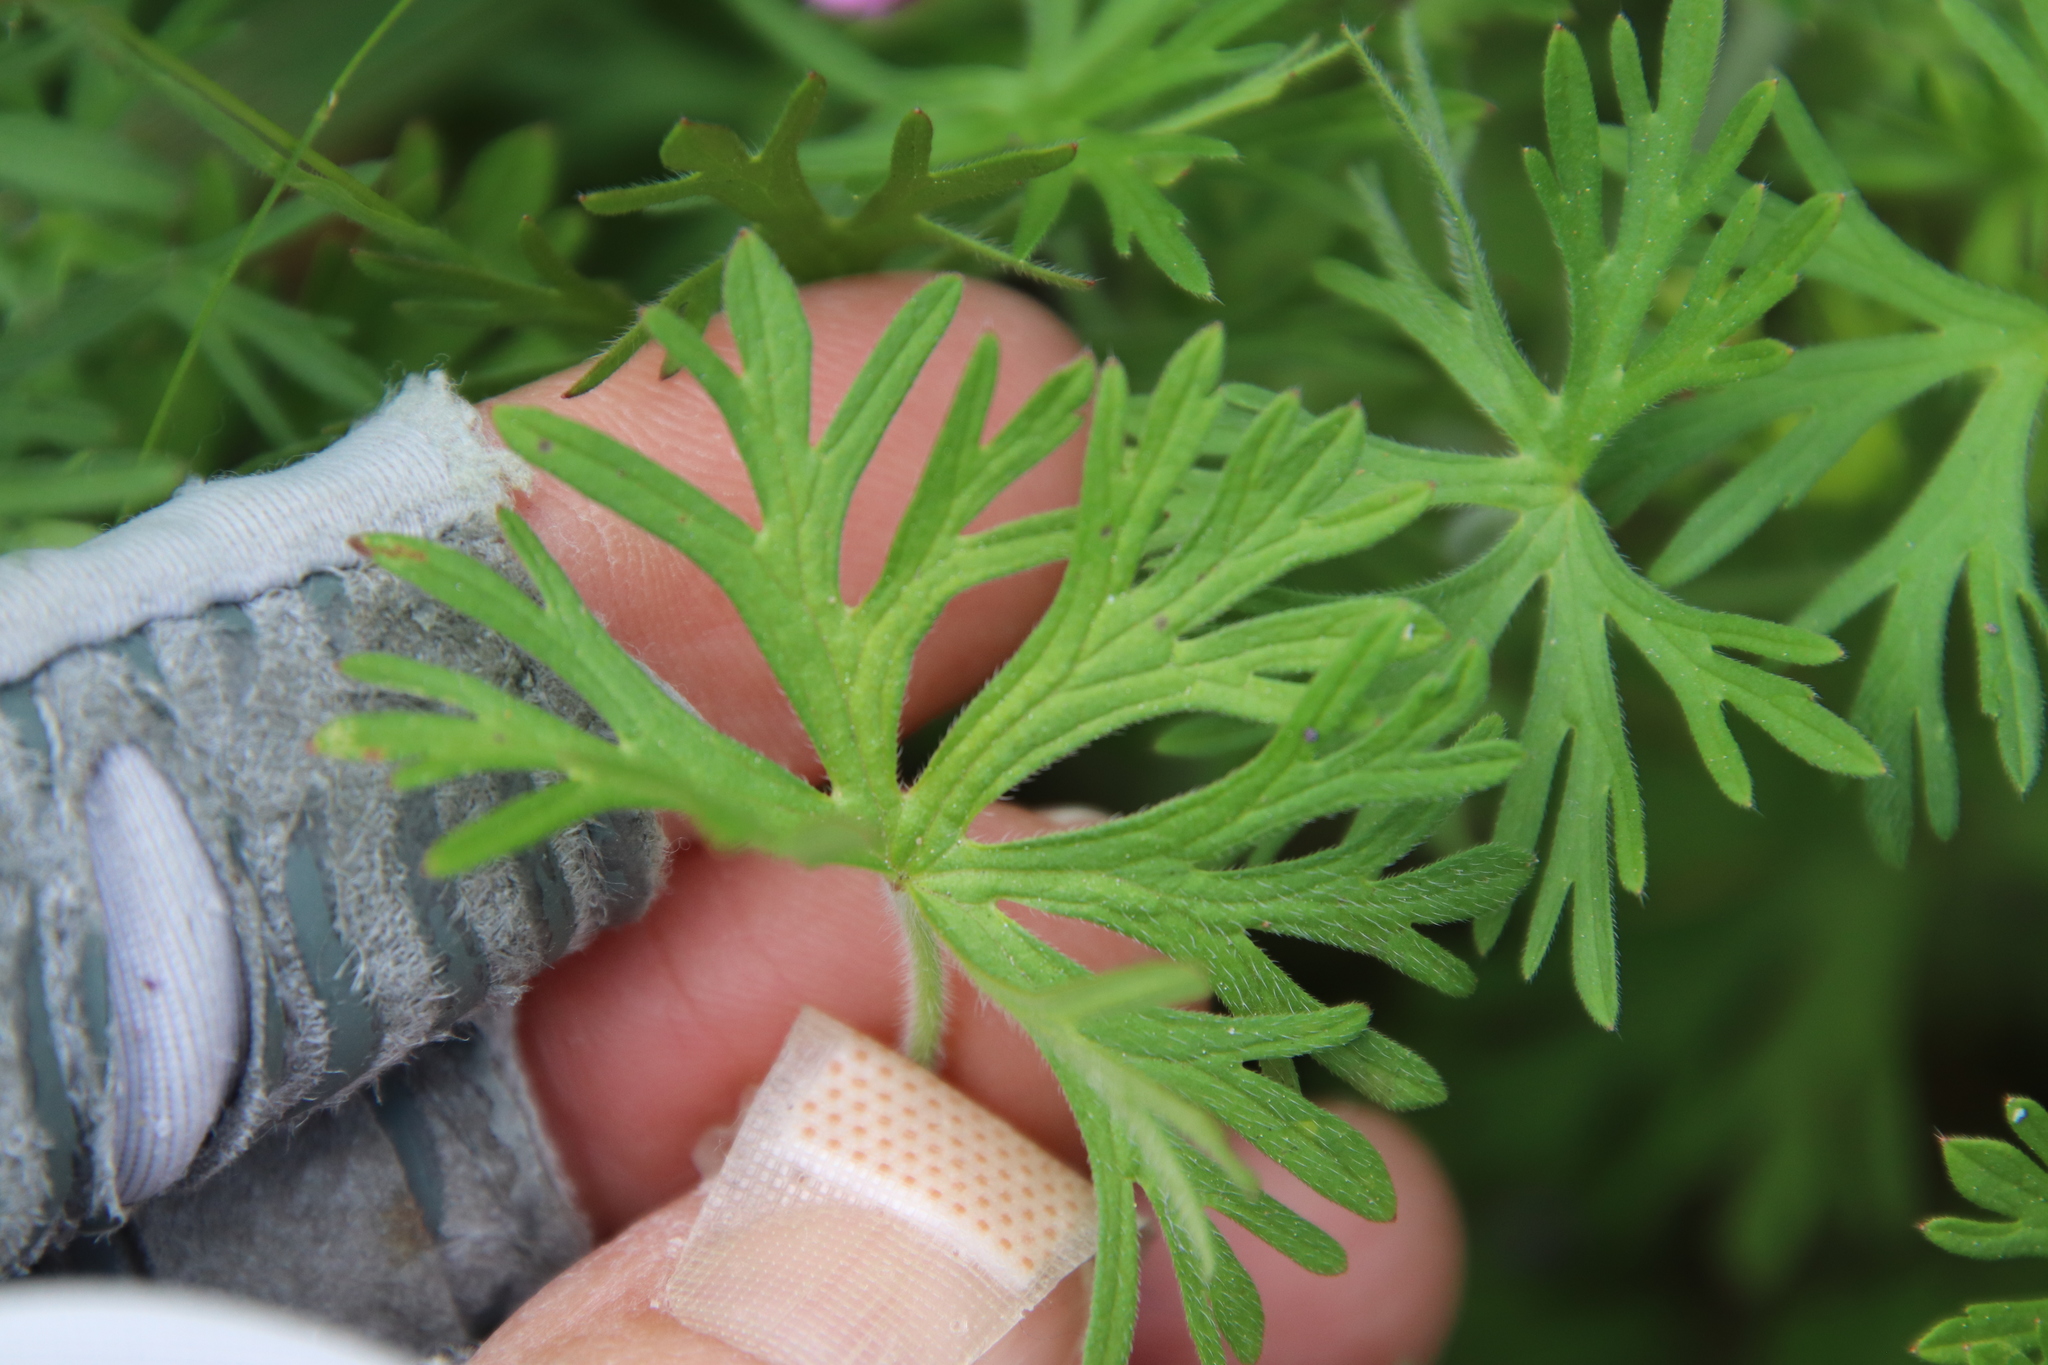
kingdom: Plantae
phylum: Tracheophyta
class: Magnoliopsida
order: Geraniales
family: Geraniaceae
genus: Geranium
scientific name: Geranium dissectum
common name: Cut-leaved crane's-bill
